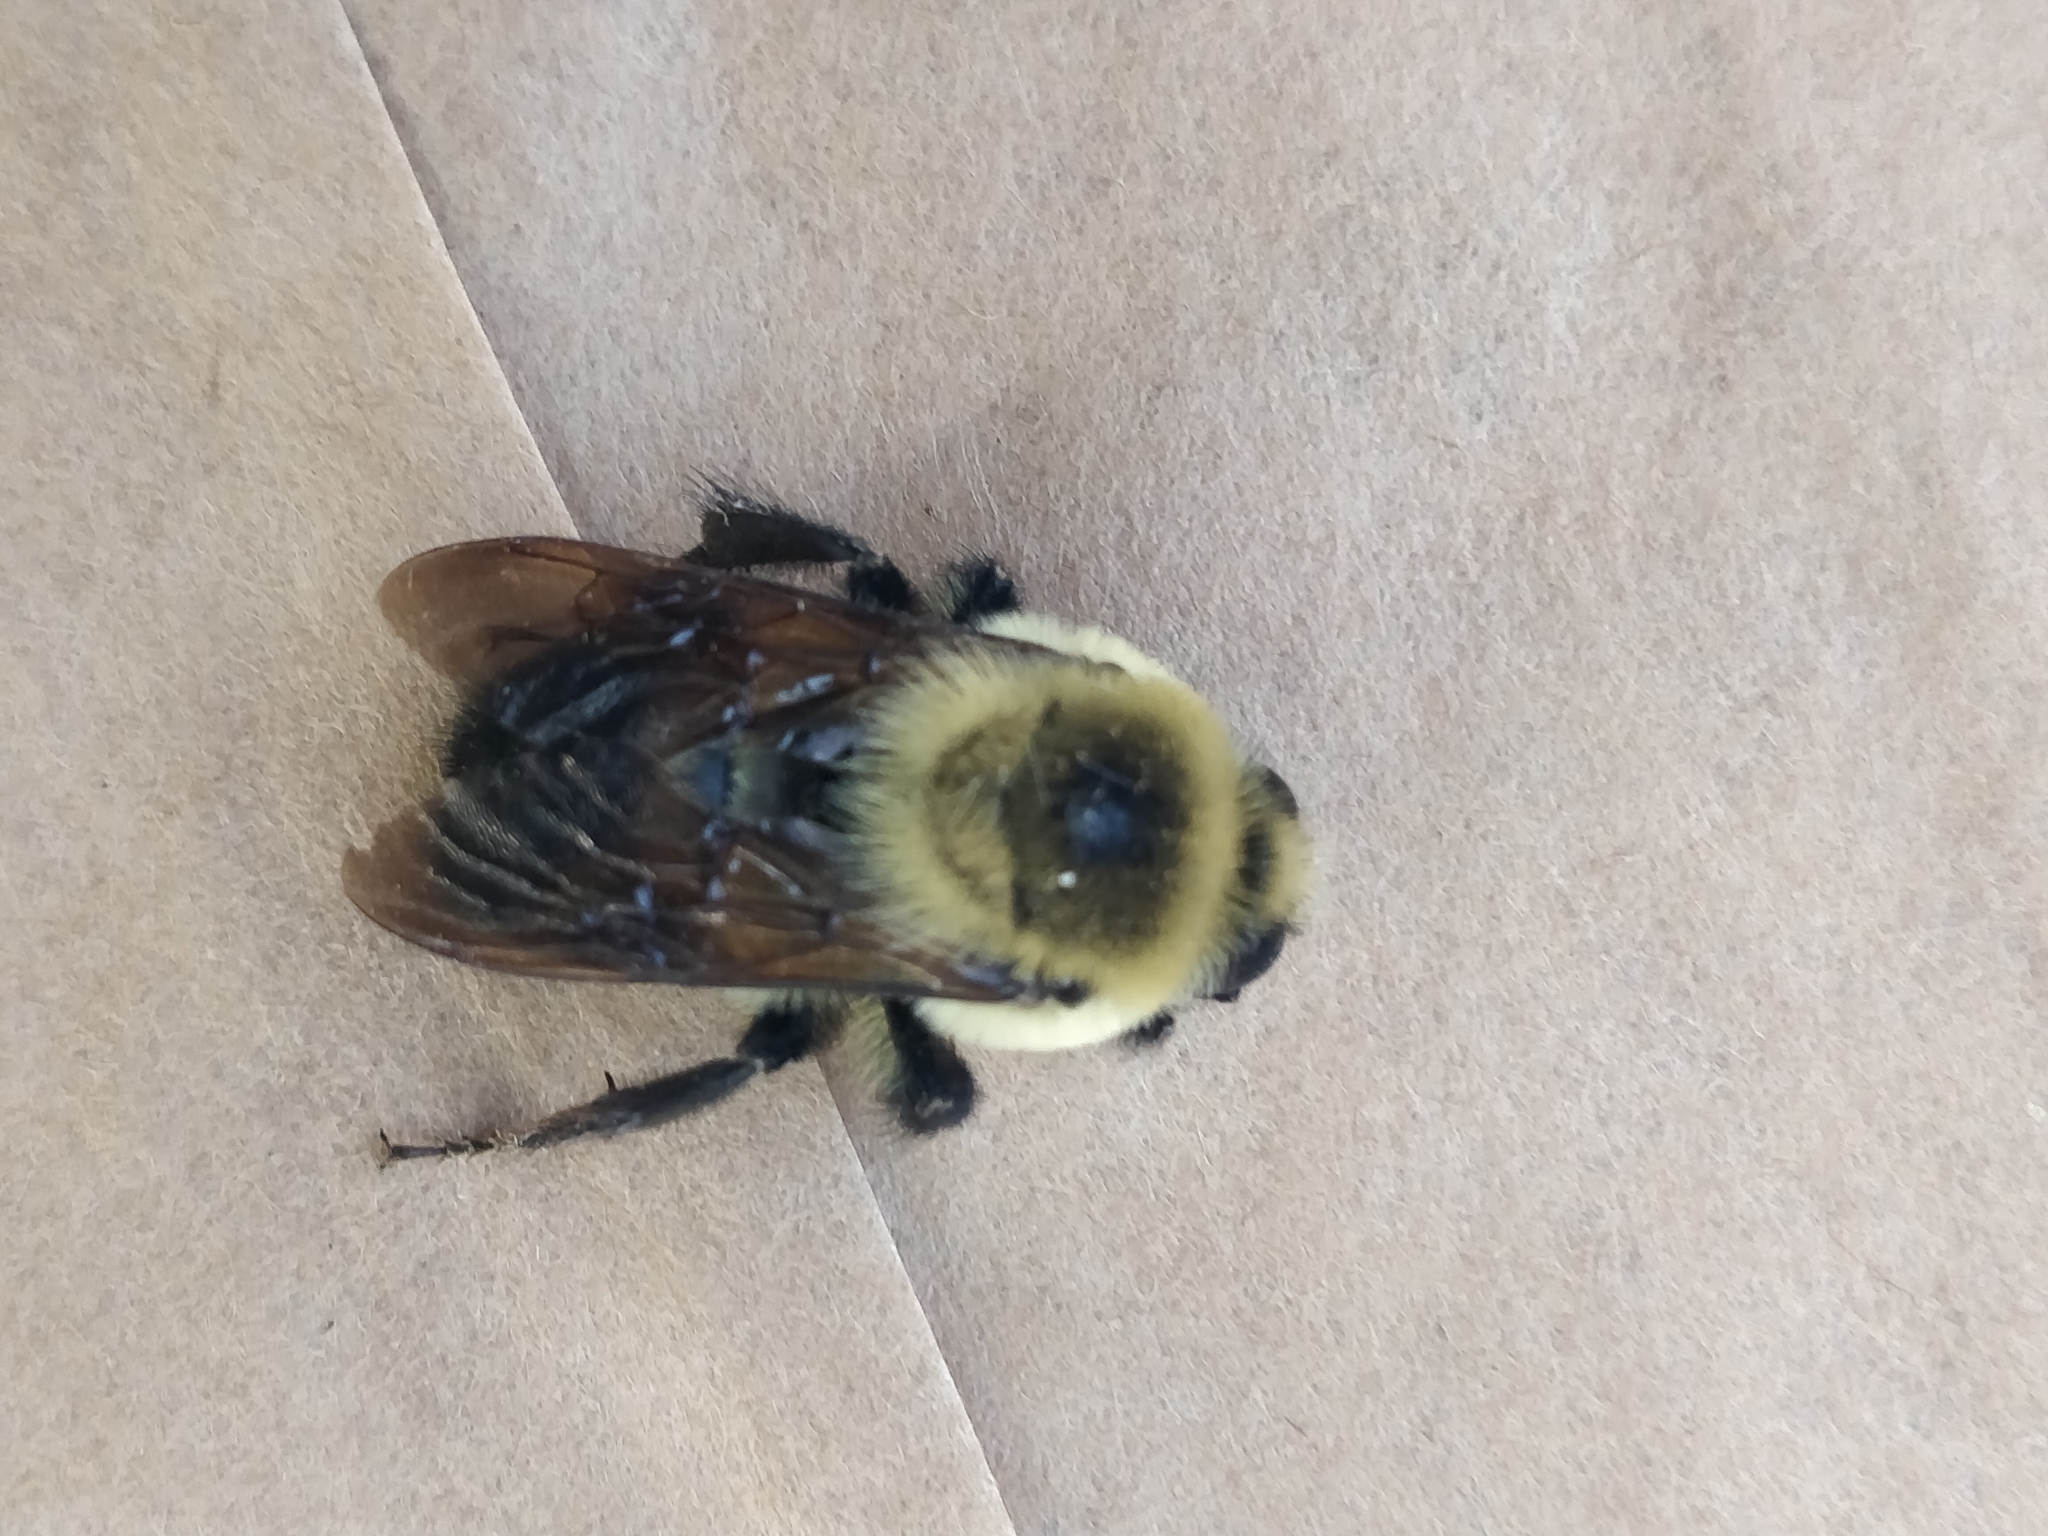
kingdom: Animalia
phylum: Arthropoda
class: Insecta
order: Hymenoptera
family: Apidae
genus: Bombus
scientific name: Bombus griseocollis
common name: Brown-belted bumble bee
